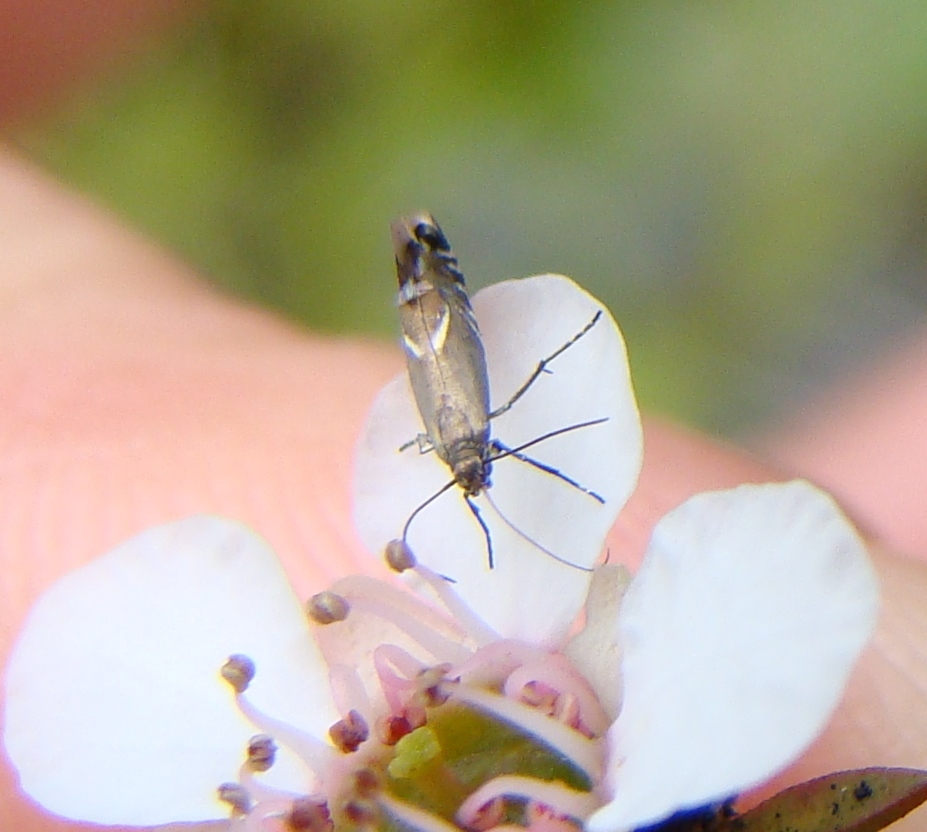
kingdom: Animalia
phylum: Arthropoda
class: Insecta
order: Lepidoptera
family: Glyphipterigidae
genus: Glyphipterix
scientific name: Glyphipterix simpliciella
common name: Cocksfoot moth
